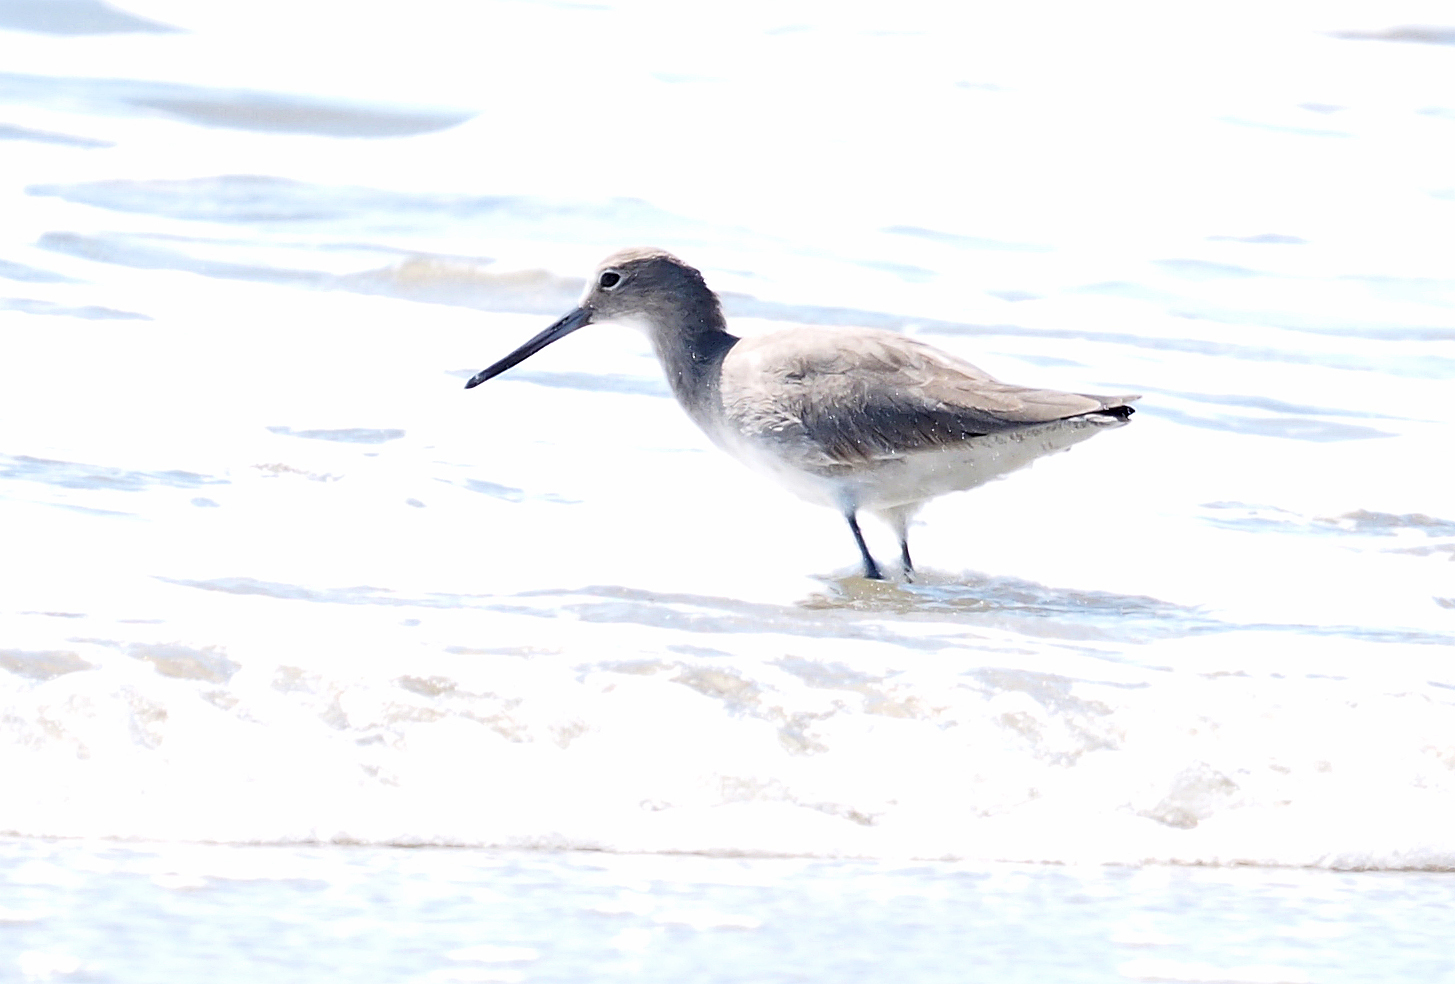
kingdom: Animalia
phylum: Chordata
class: Aves
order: Charadriiformes
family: Scolopacidae
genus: Tringa
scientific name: Tringa semipalmata
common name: Willet
